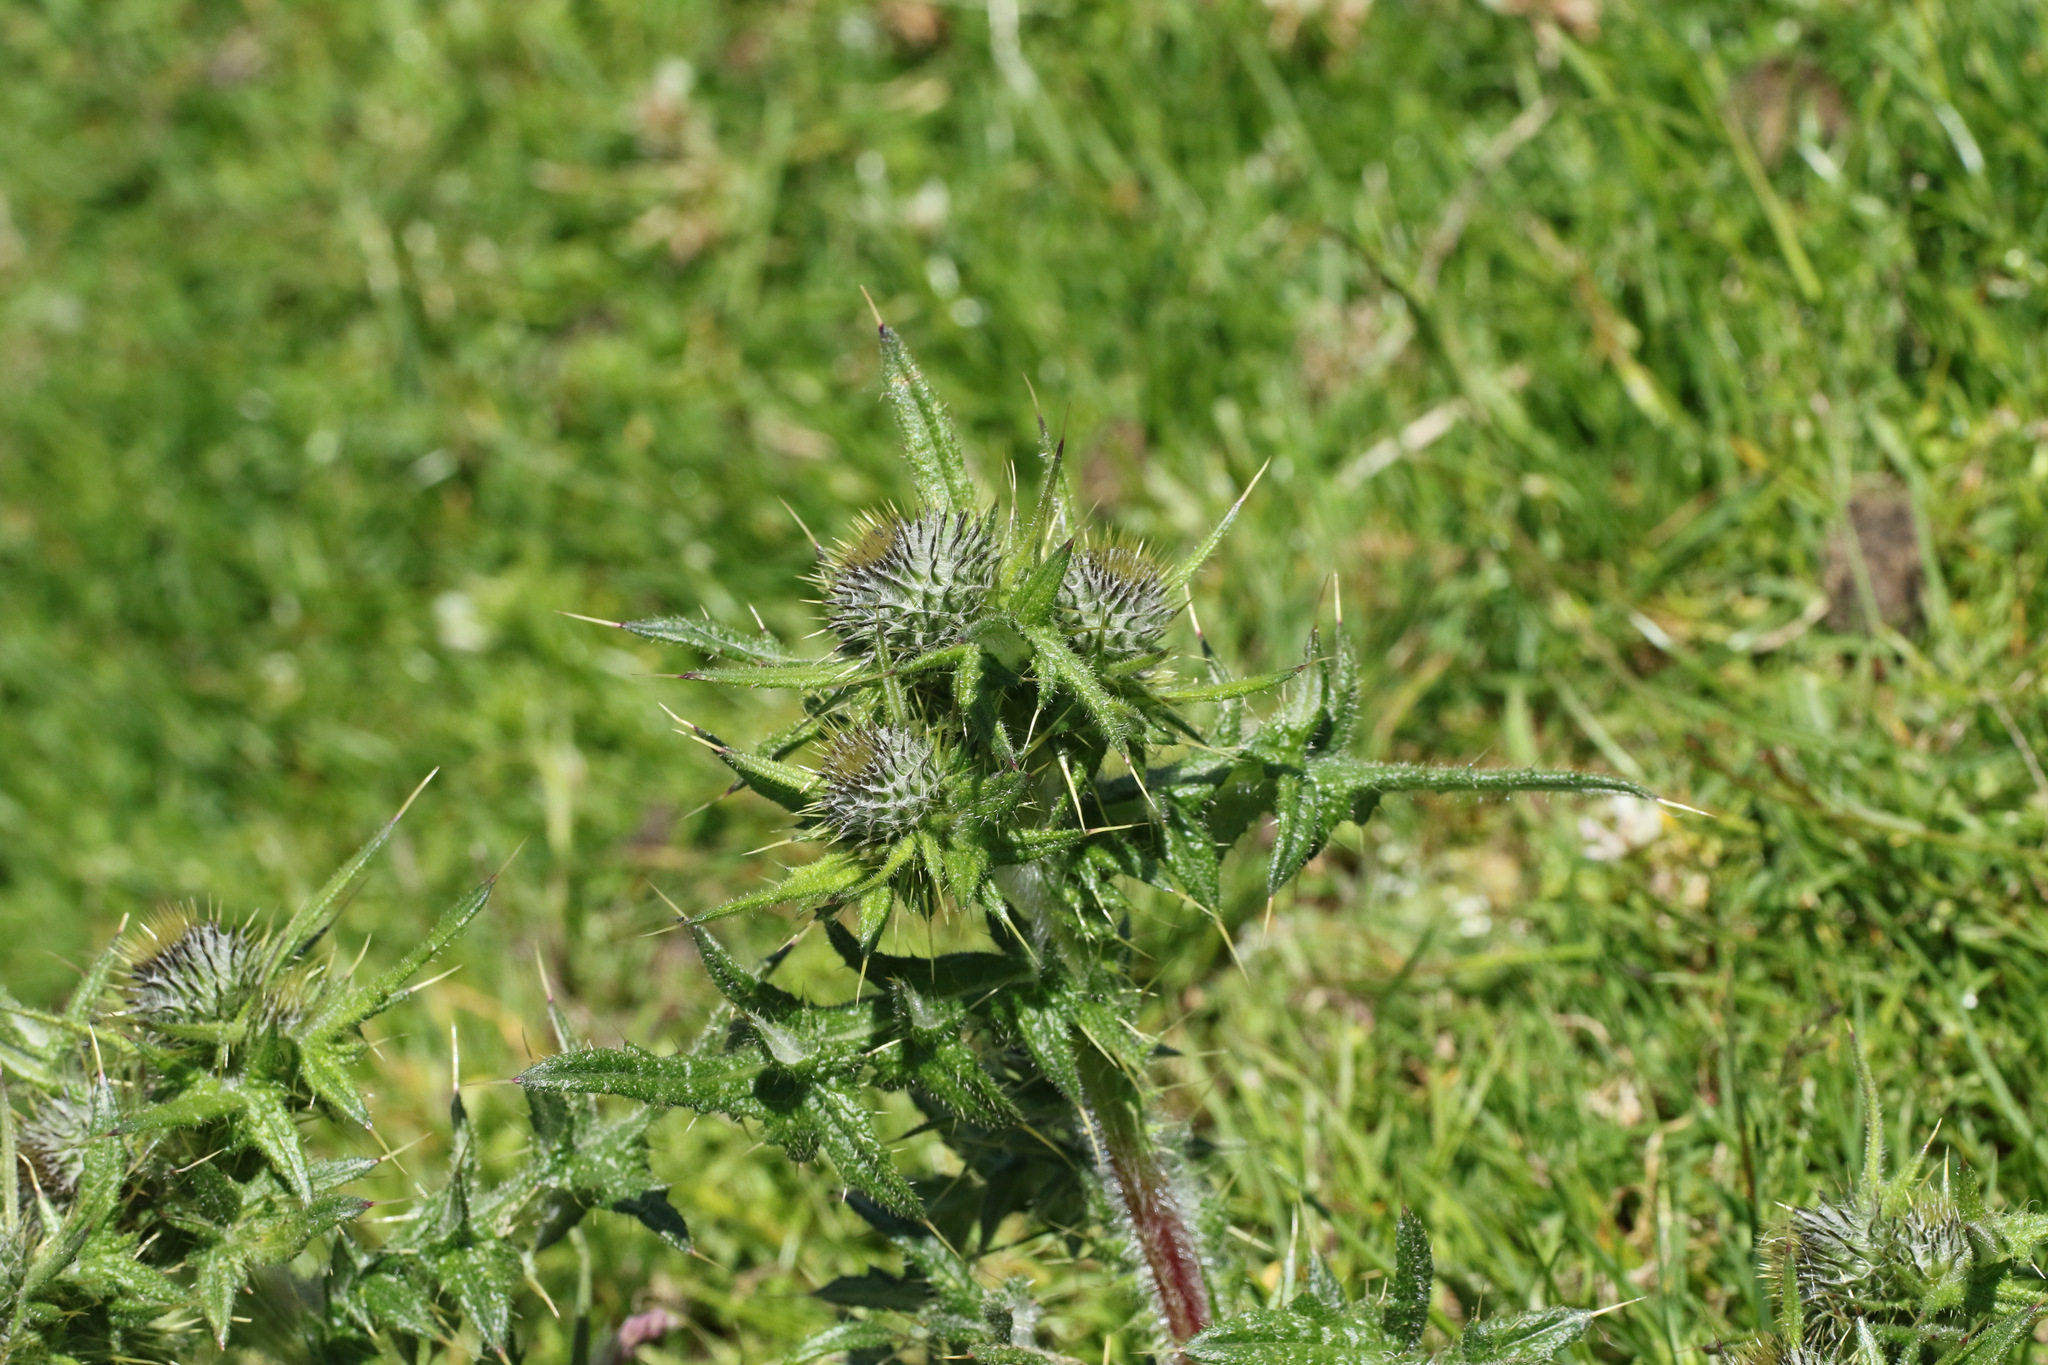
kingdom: Plantae
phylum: Tracheophyta
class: Magnoliopsida
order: Asterales
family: Asteraceae
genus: Cirsium
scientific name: Cirsium vulgare
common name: Bull thistle
